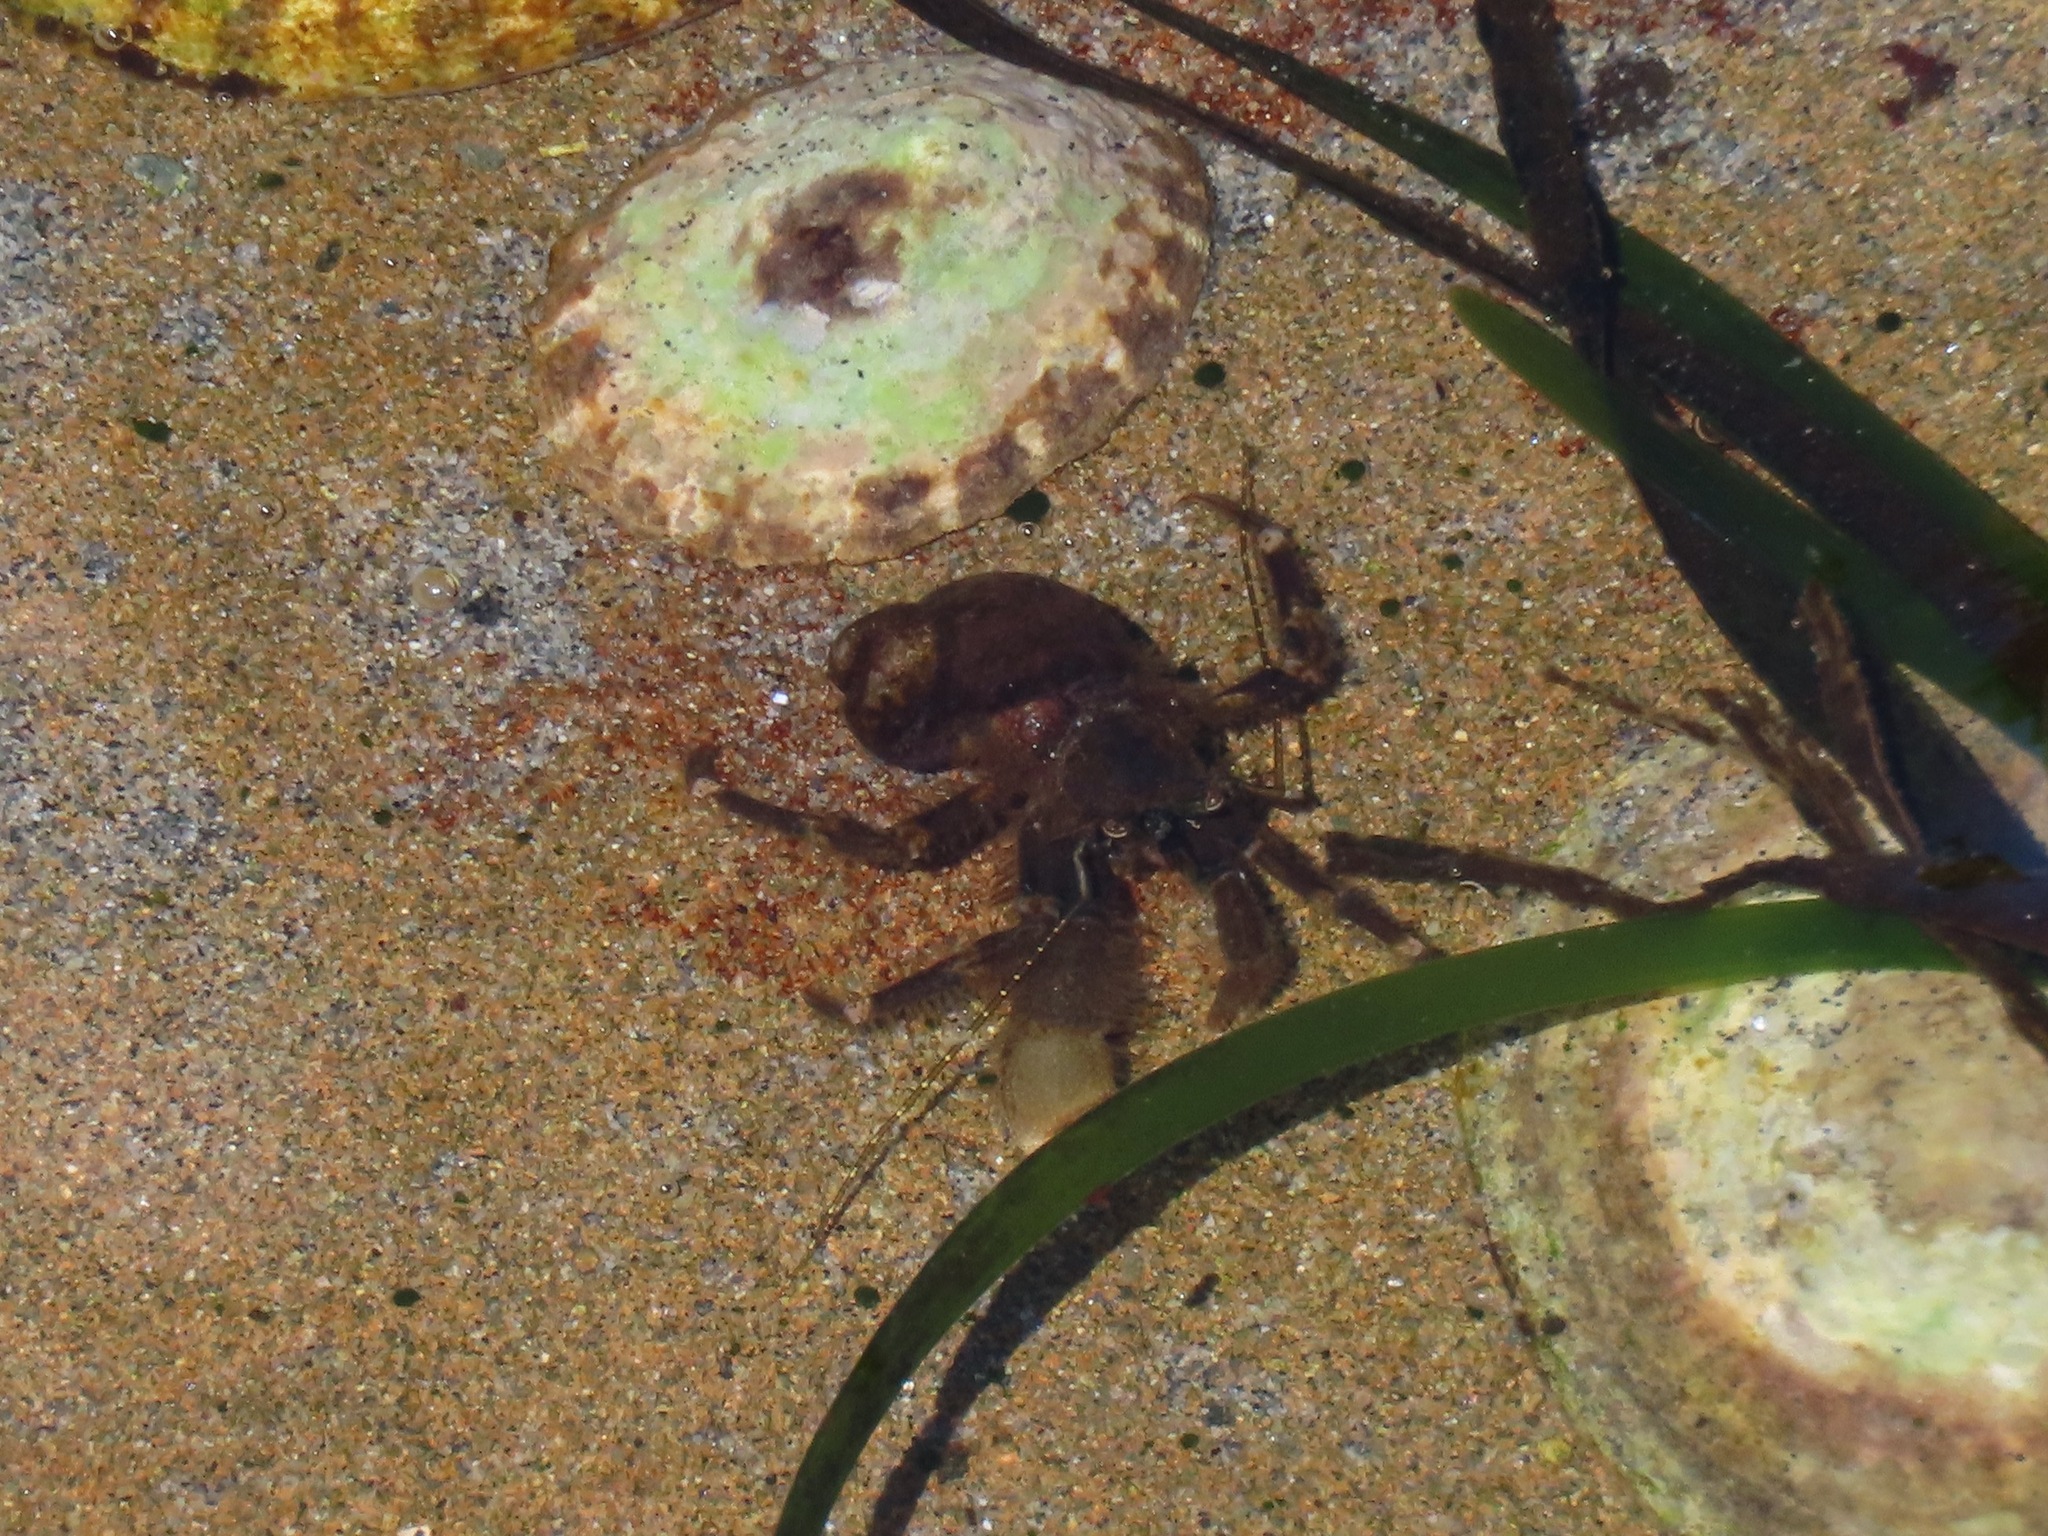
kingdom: Animalia
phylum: Arthropoda
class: Malacostraca
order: Decapoda
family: Paguridae
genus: Pagurus
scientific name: Pagurus hirsutiusculus
